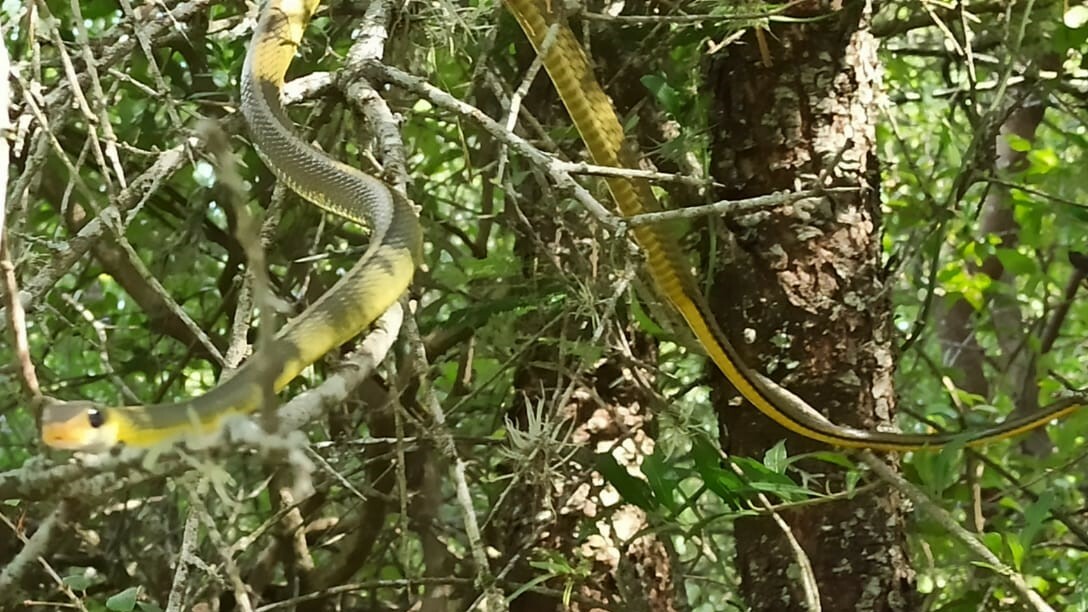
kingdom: Animalia
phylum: Chordata
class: Squamata
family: Colubridae
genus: Chironius
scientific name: Chironius gouveai
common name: Gouvea’s sipo
